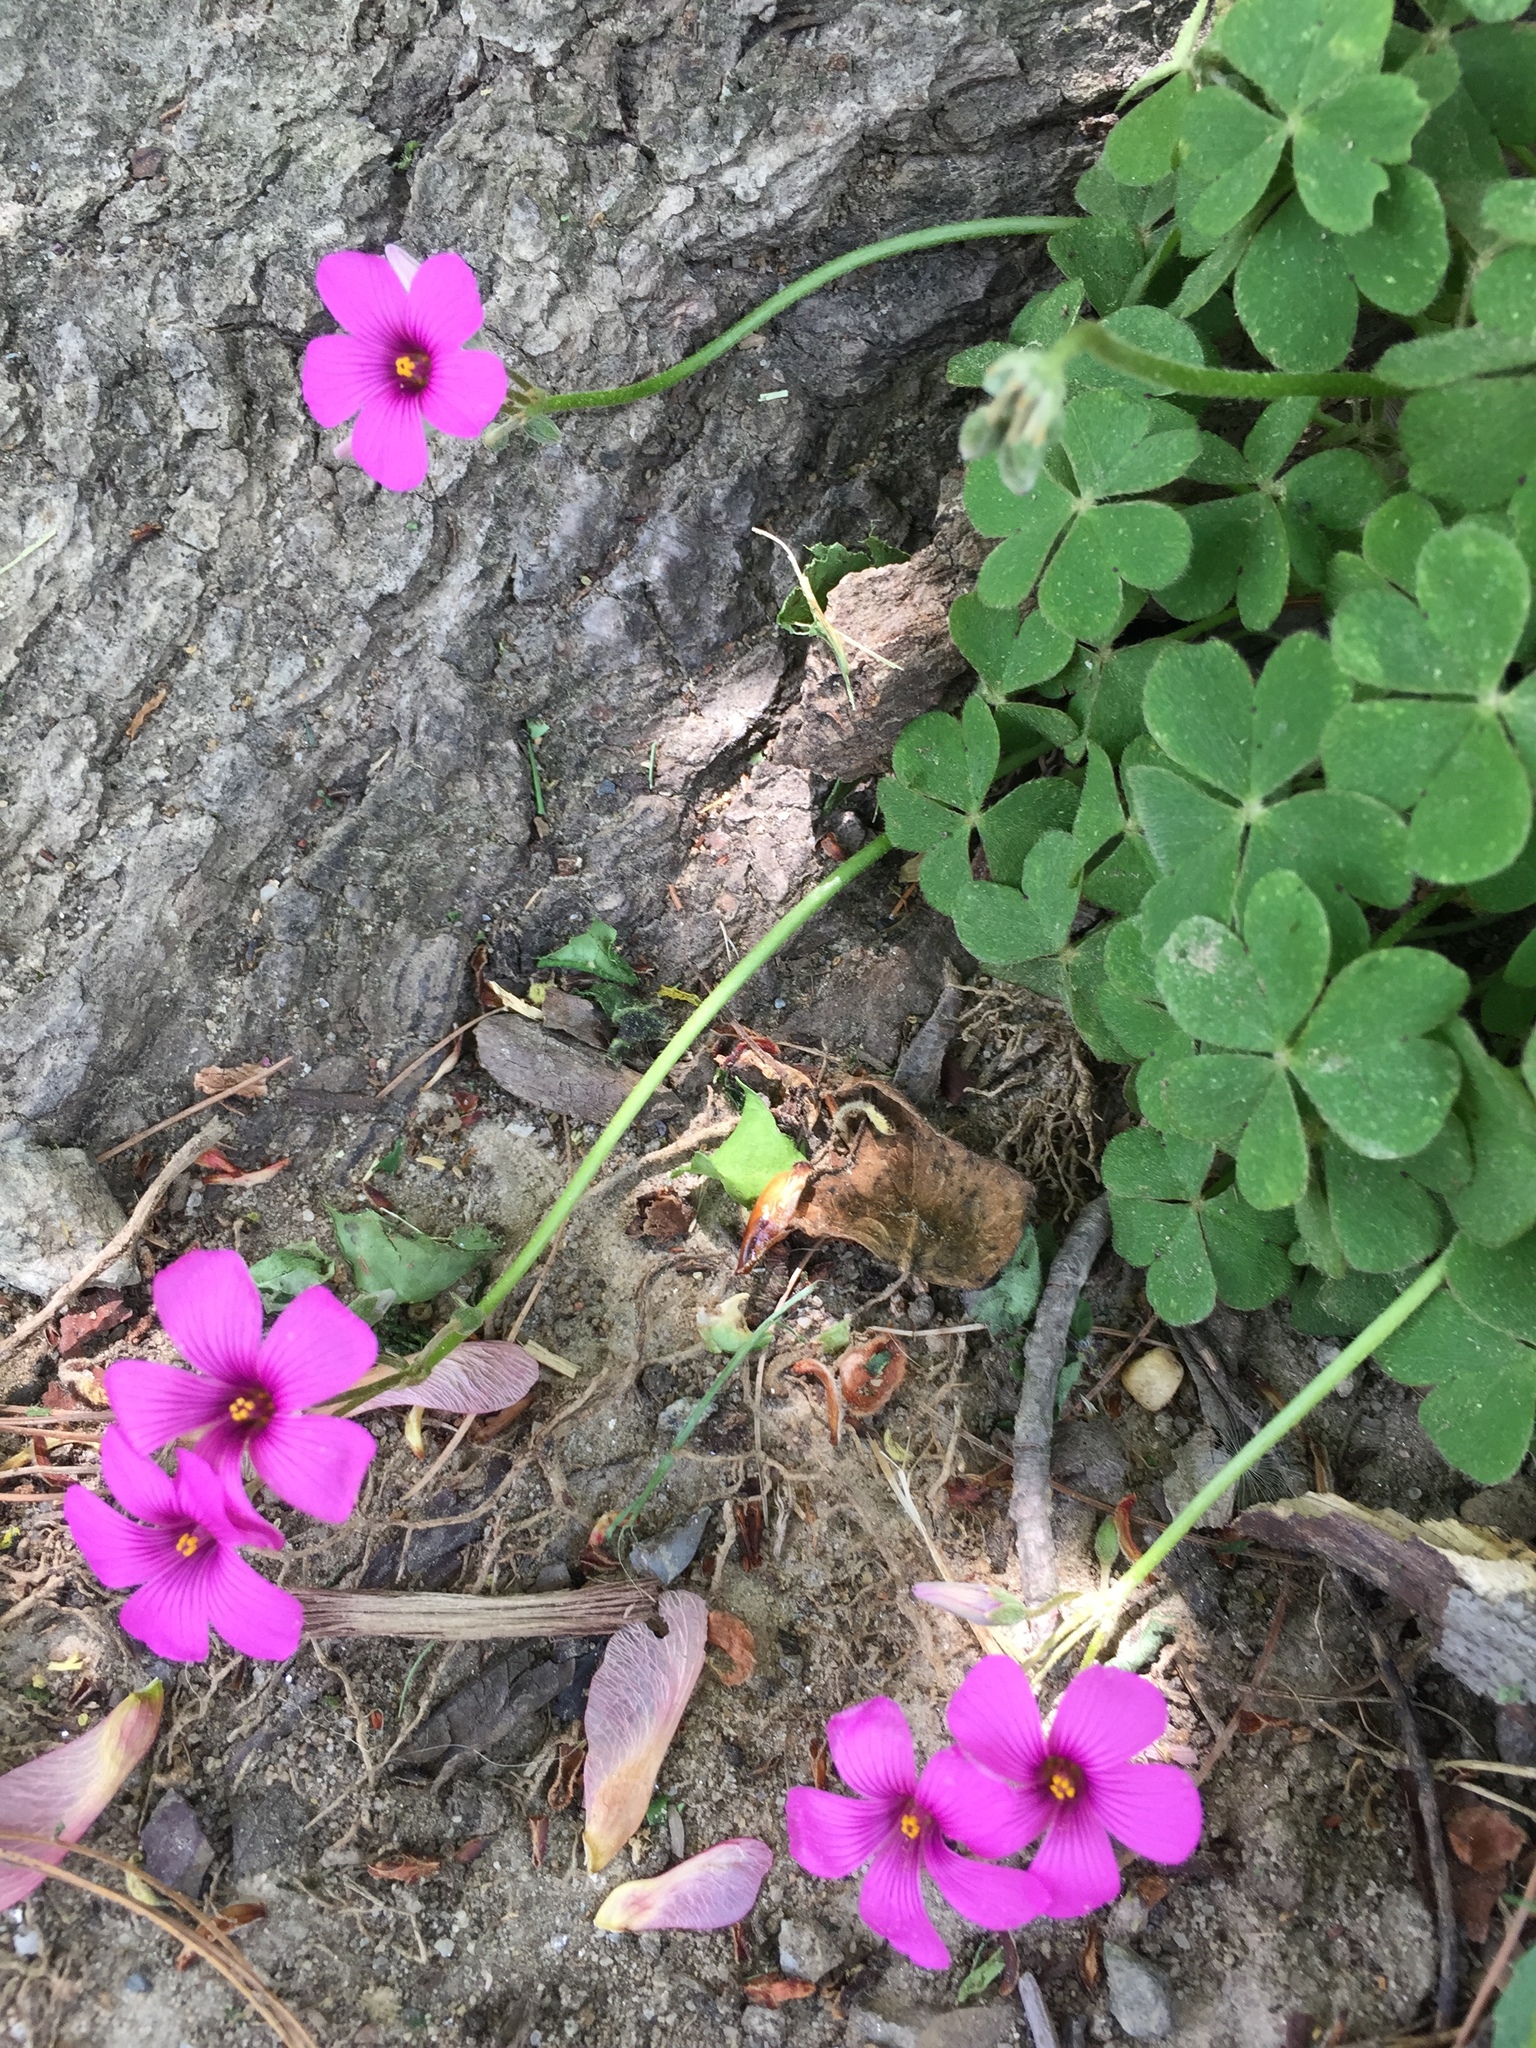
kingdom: Plantae
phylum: Tracheophyta
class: Magnoliopsida
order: Oxalidales
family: Oxalidaceae
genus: Oxalis
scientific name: Oxalis articulata
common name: Pink-sorrel
